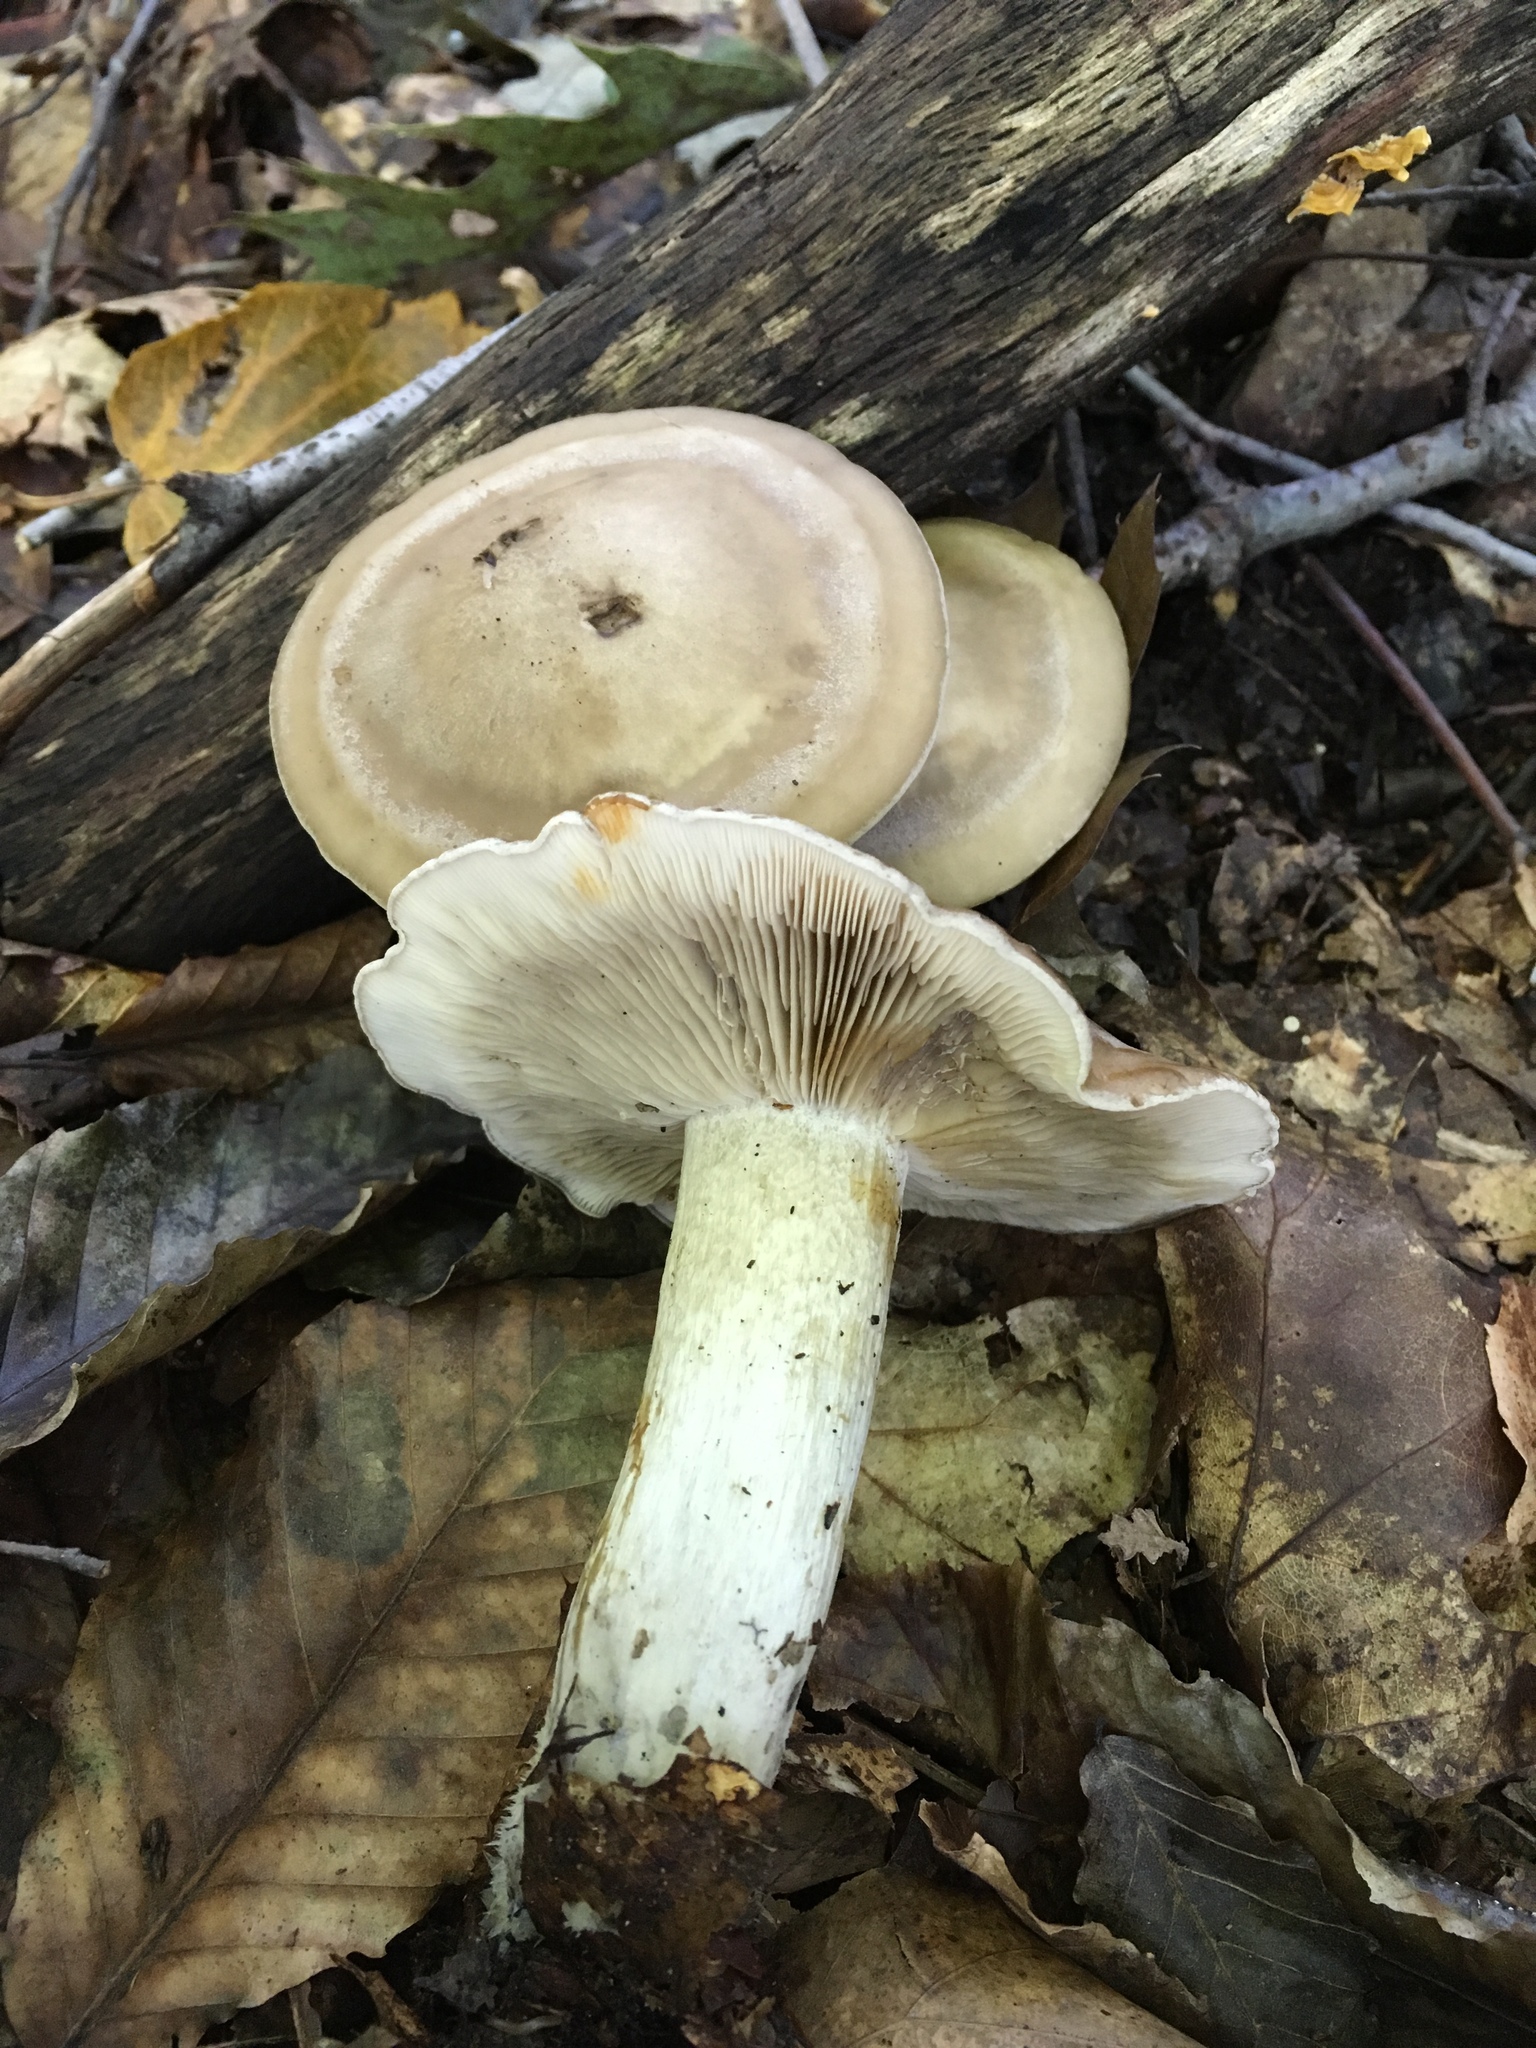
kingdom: Fungi
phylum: Basidiomycota
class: Agaricomycetes
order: Agaricales
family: Tricholomataceae
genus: Tricholoma
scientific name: Tricholoma saponaceum
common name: Soapy trich
